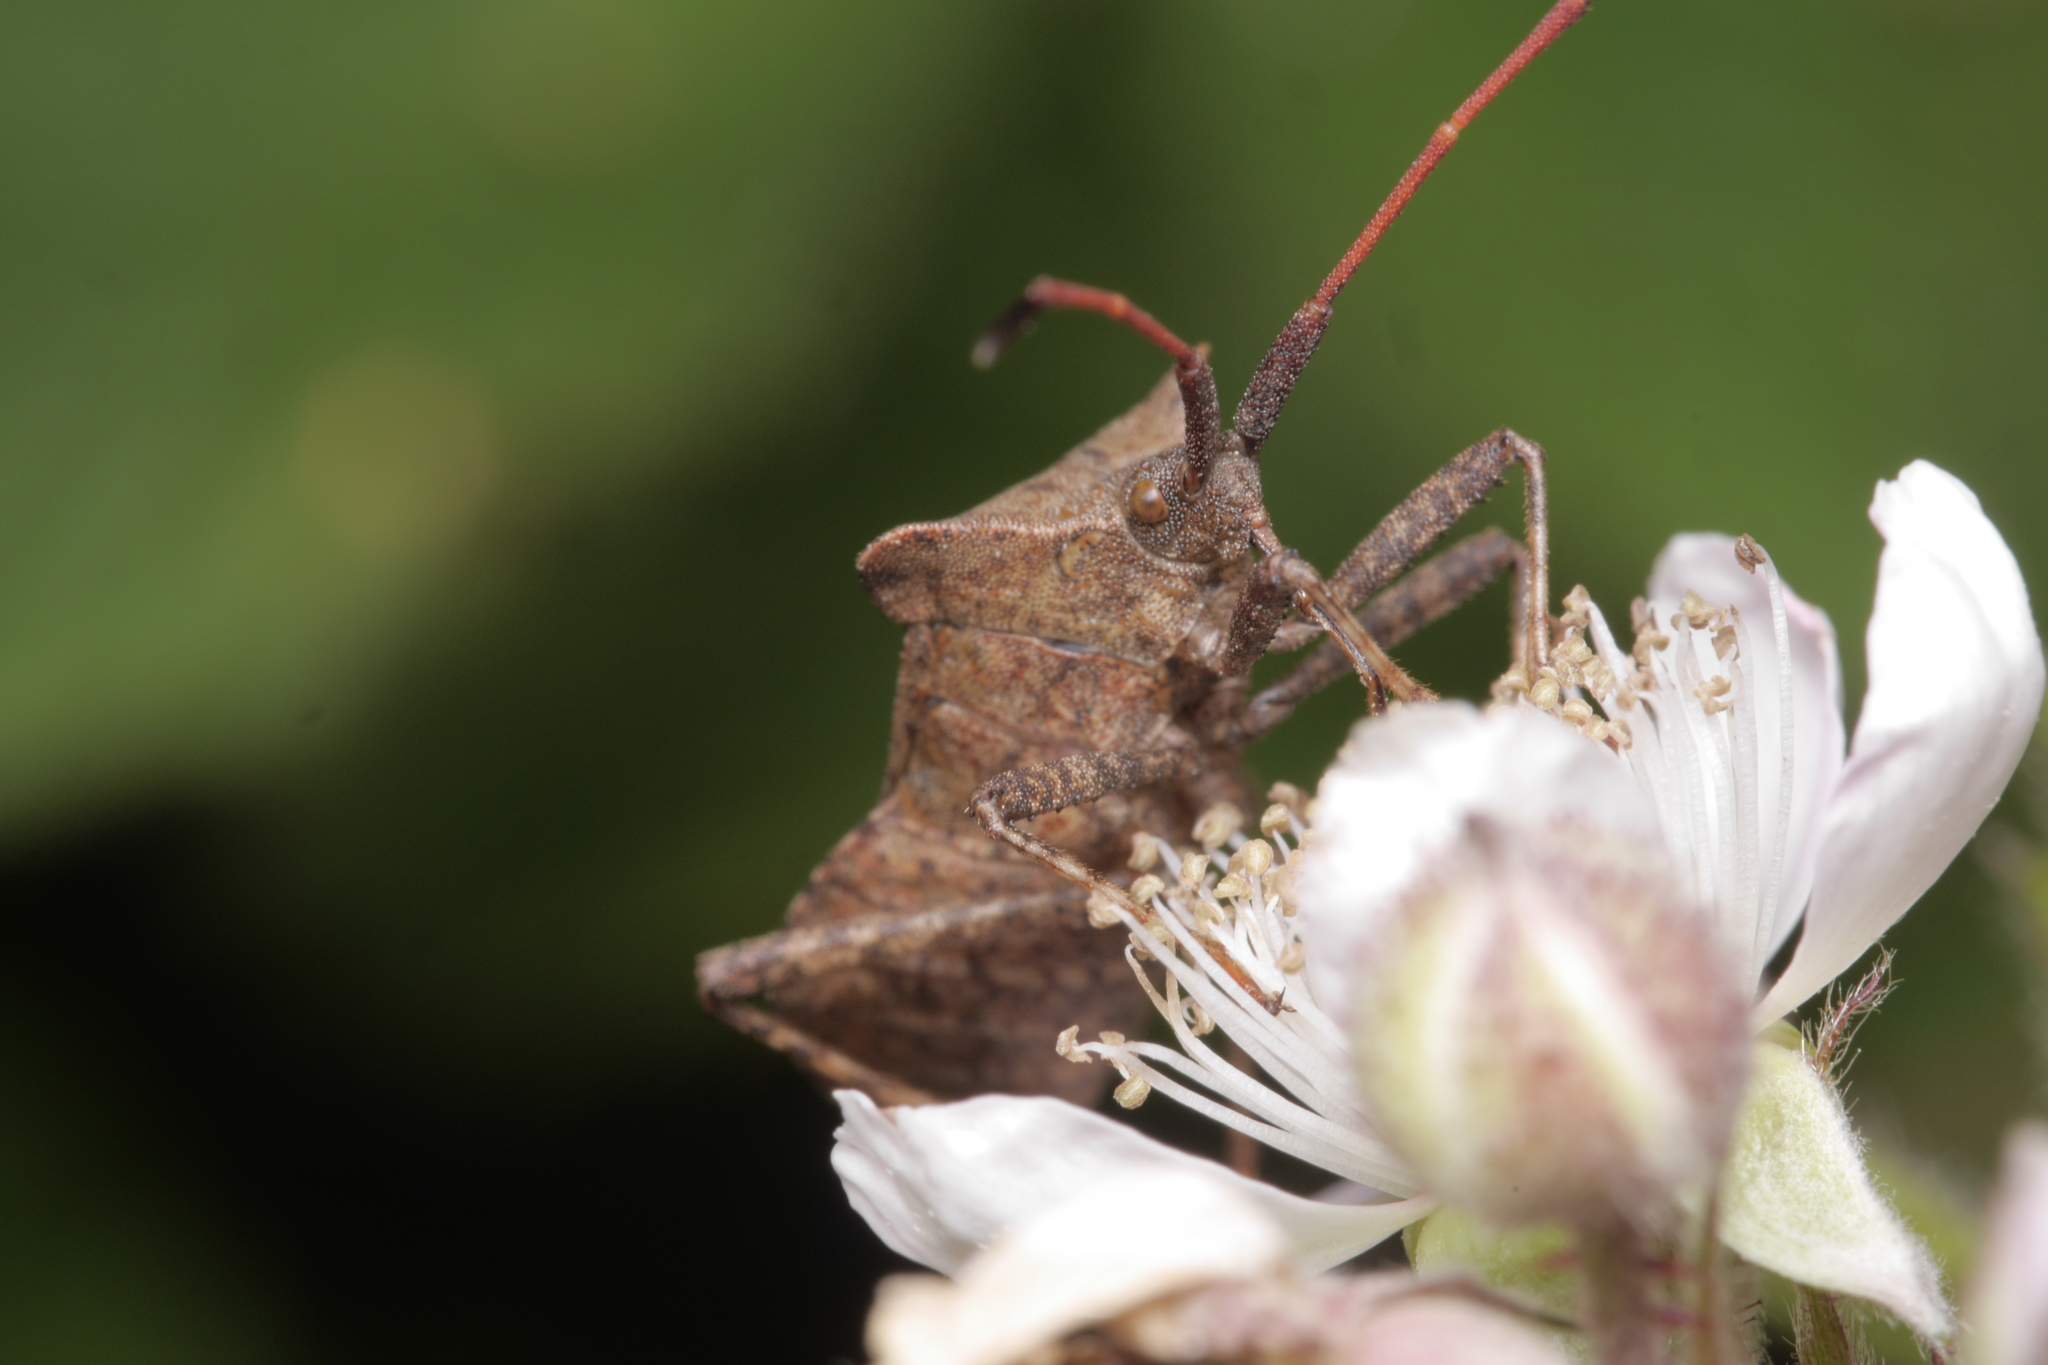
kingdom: Animalia
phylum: Arthropoda
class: Insecta
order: Hemiptera
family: Coreidae
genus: Coreus
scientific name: Coreus marginatus
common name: Dock bug
